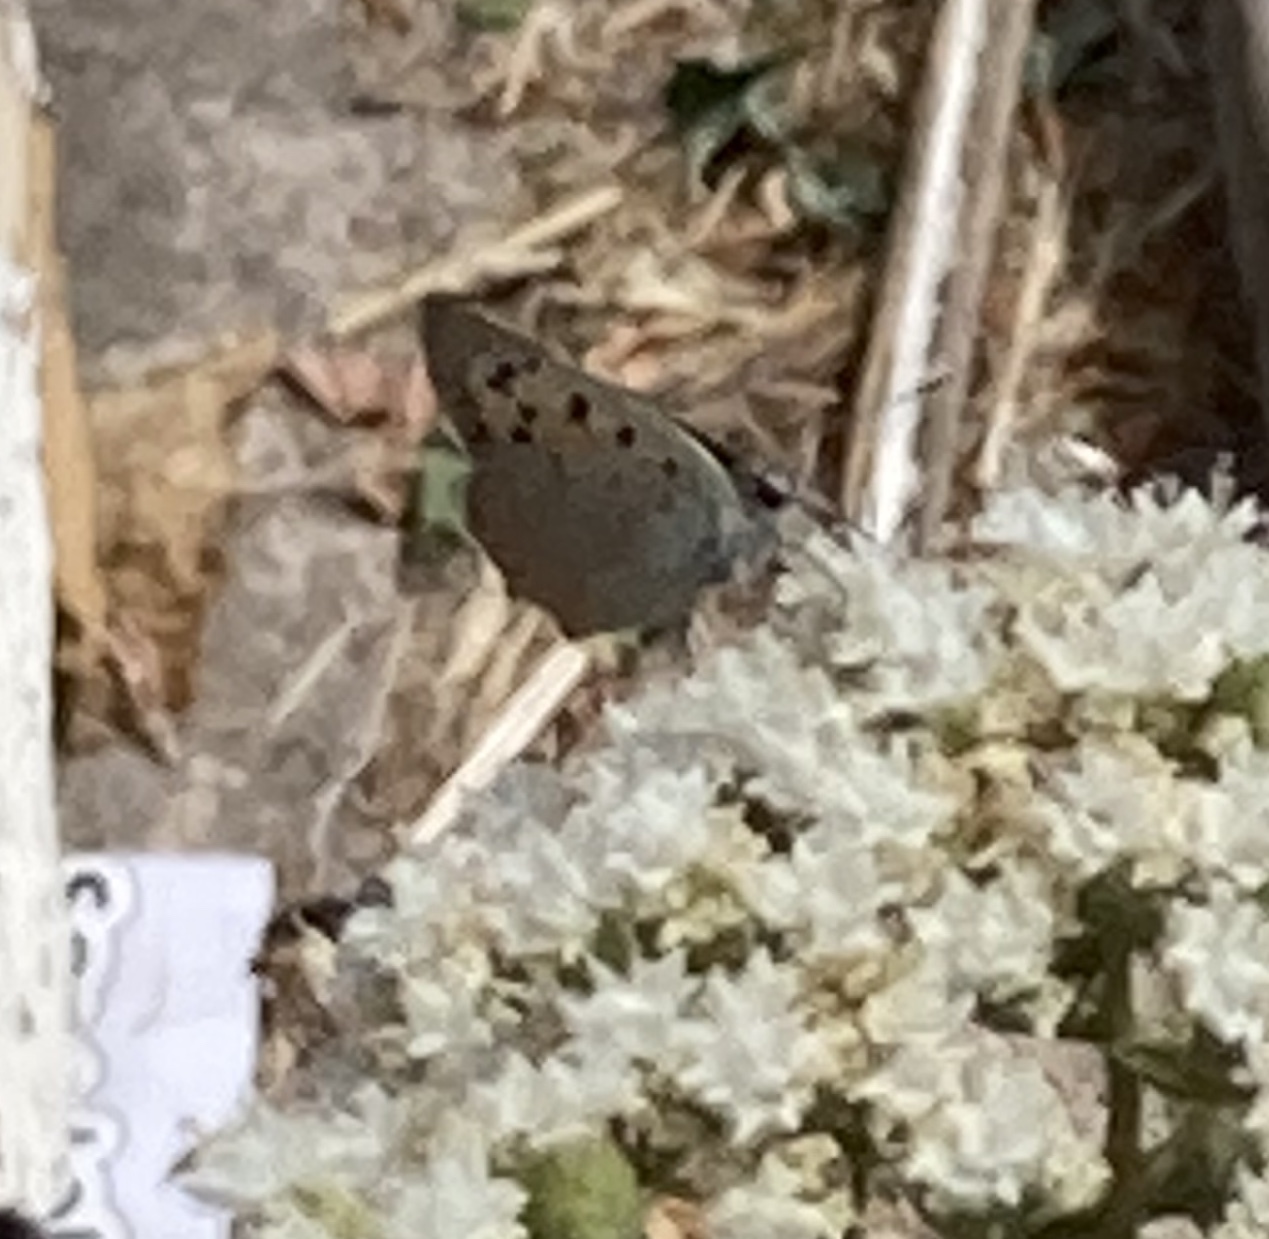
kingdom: Animalia
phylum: Arthropoda
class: Insecta
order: Lepidoptera
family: Lycaenidae
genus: Lycaena
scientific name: Lycaena phlaeas
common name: Small copper
